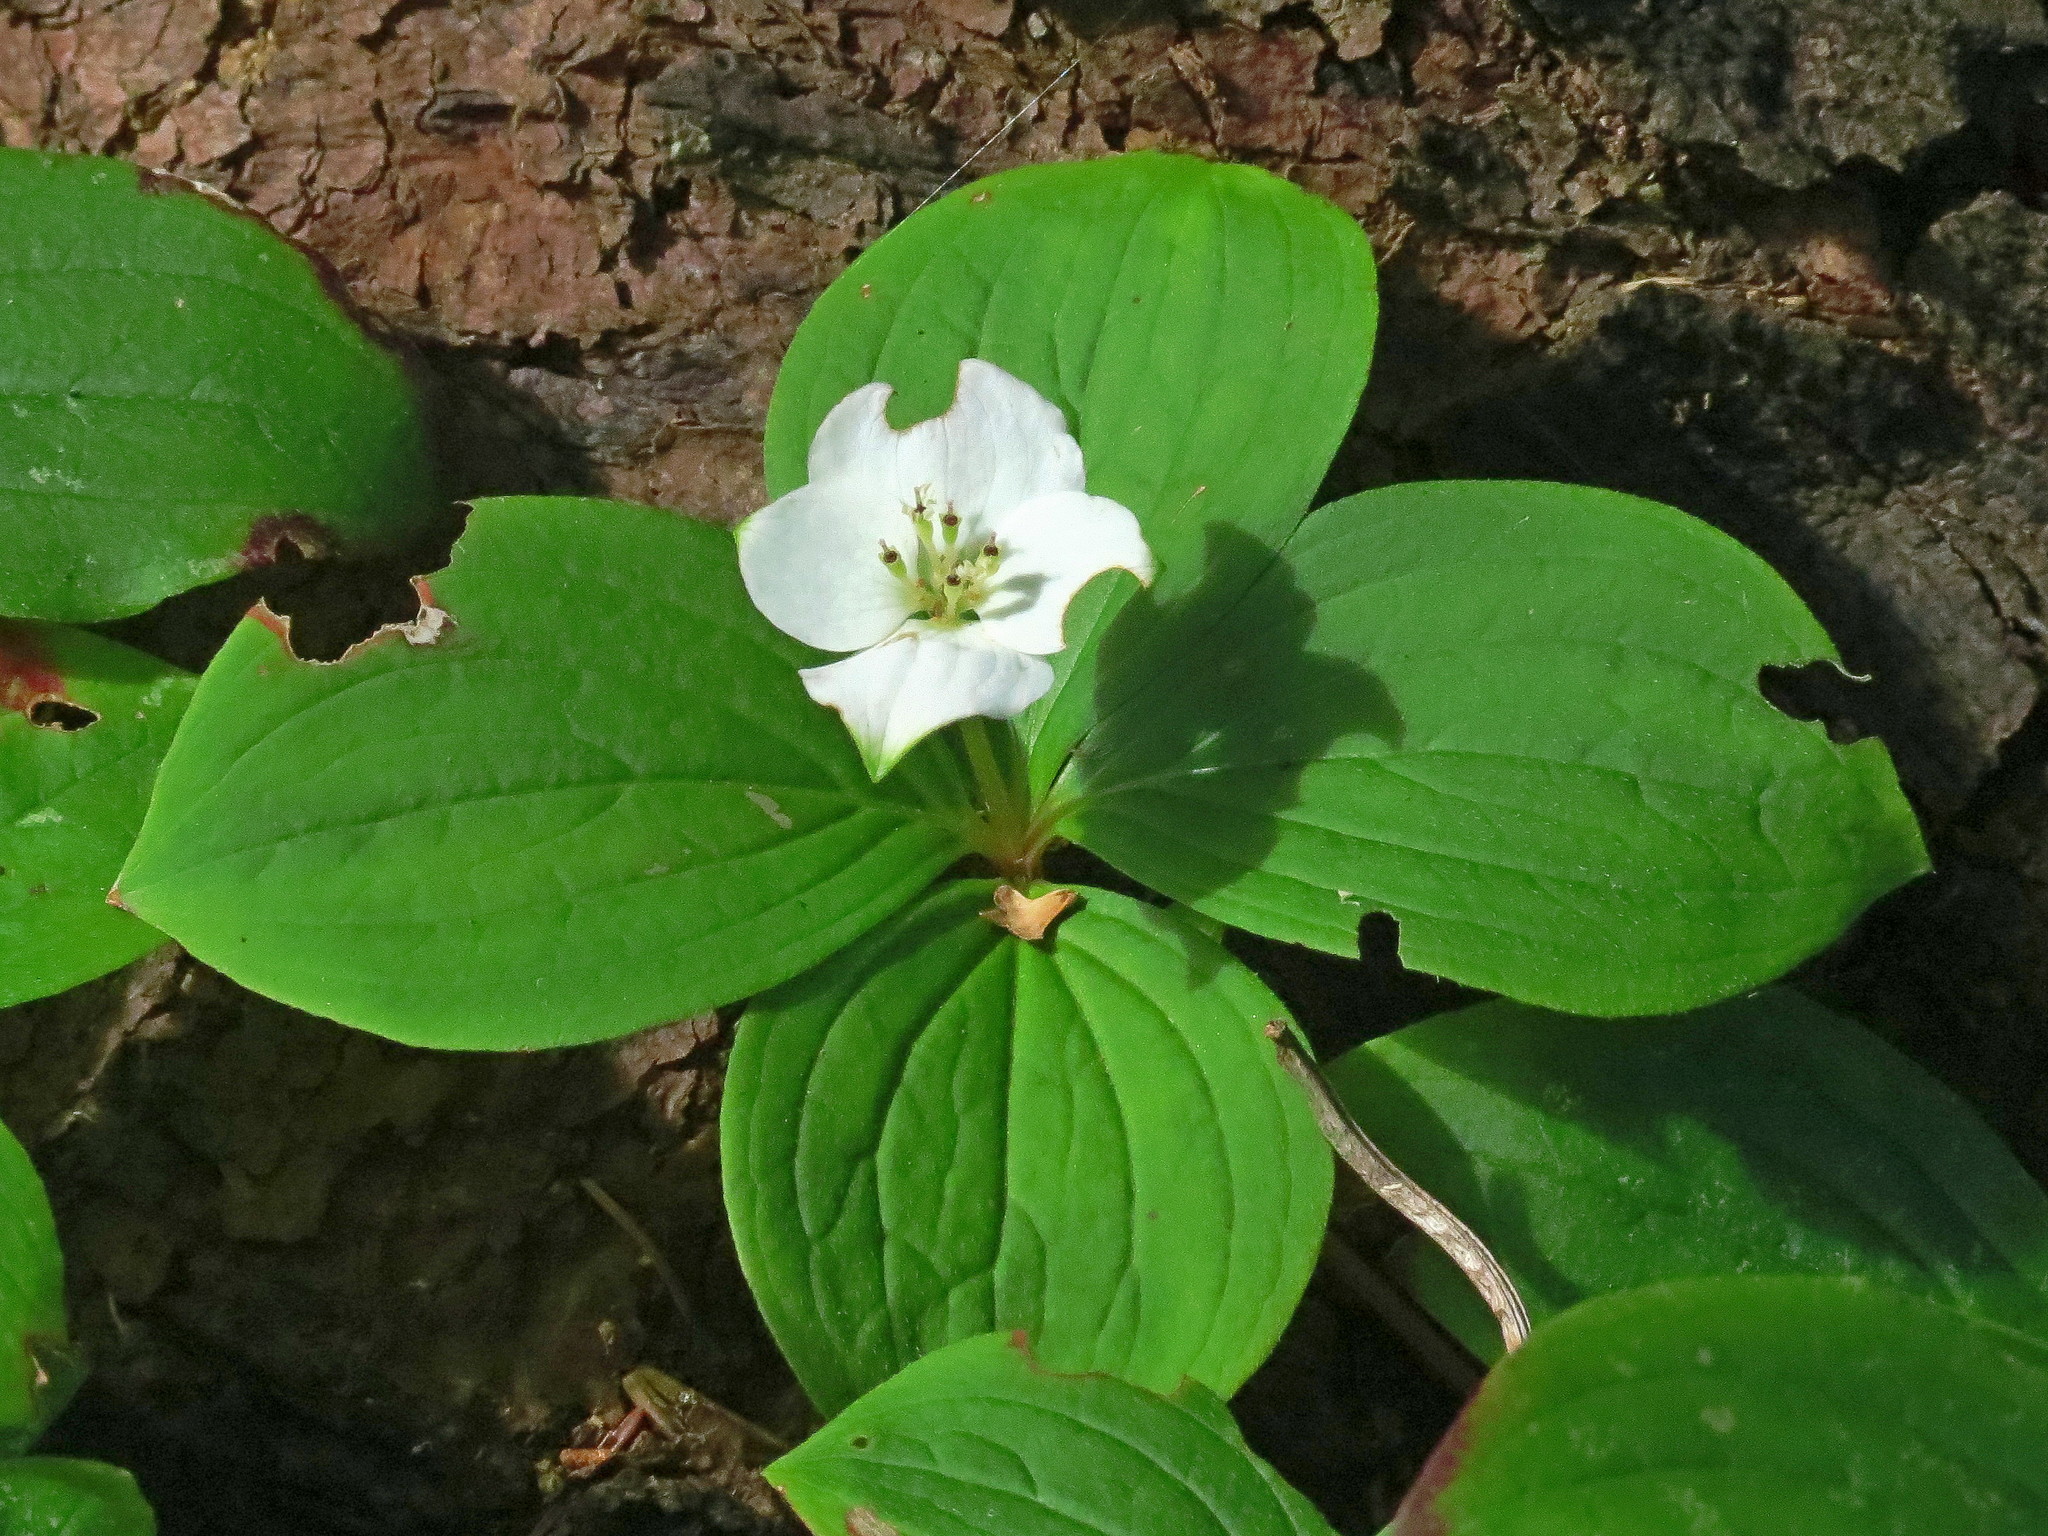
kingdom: Plantae
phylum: Tracheophyta
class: Magnoliopsida
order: Cornales
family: Cornaceae
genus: Cornus
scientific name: Cornus canadensis
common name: Creeping dogwood
